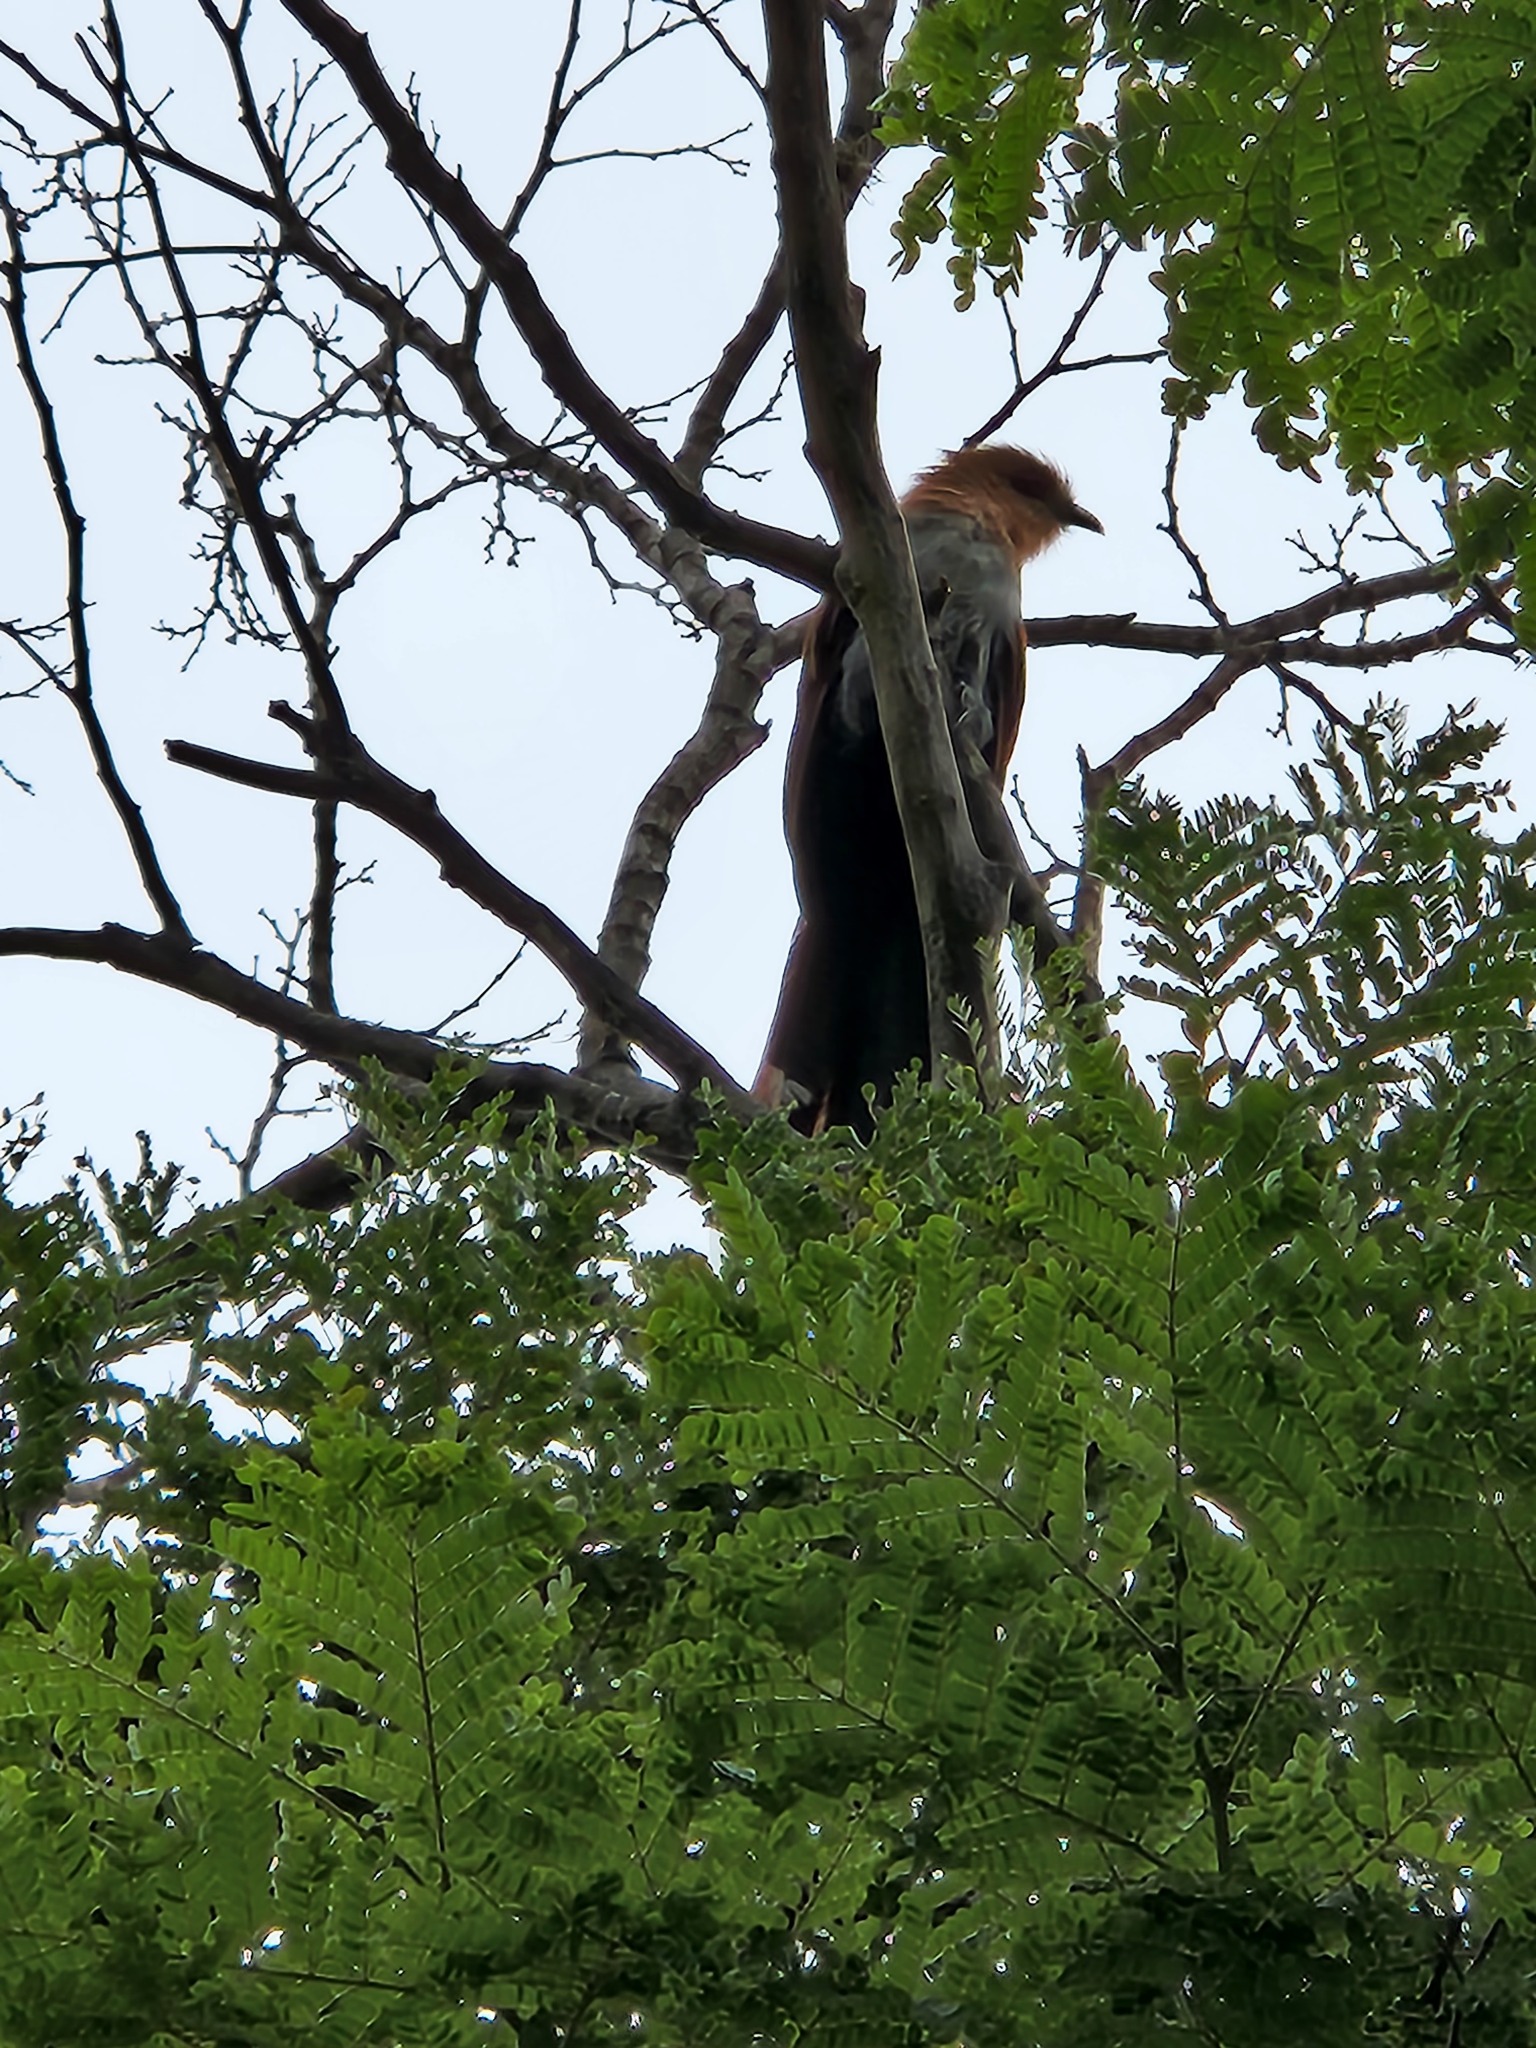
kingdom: Animalia
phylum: Chordata
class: Aves
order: Cuculiformes
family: Cuculidae
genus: Piaya
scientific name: Piaya cayana
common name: Squirrel cuckoo
